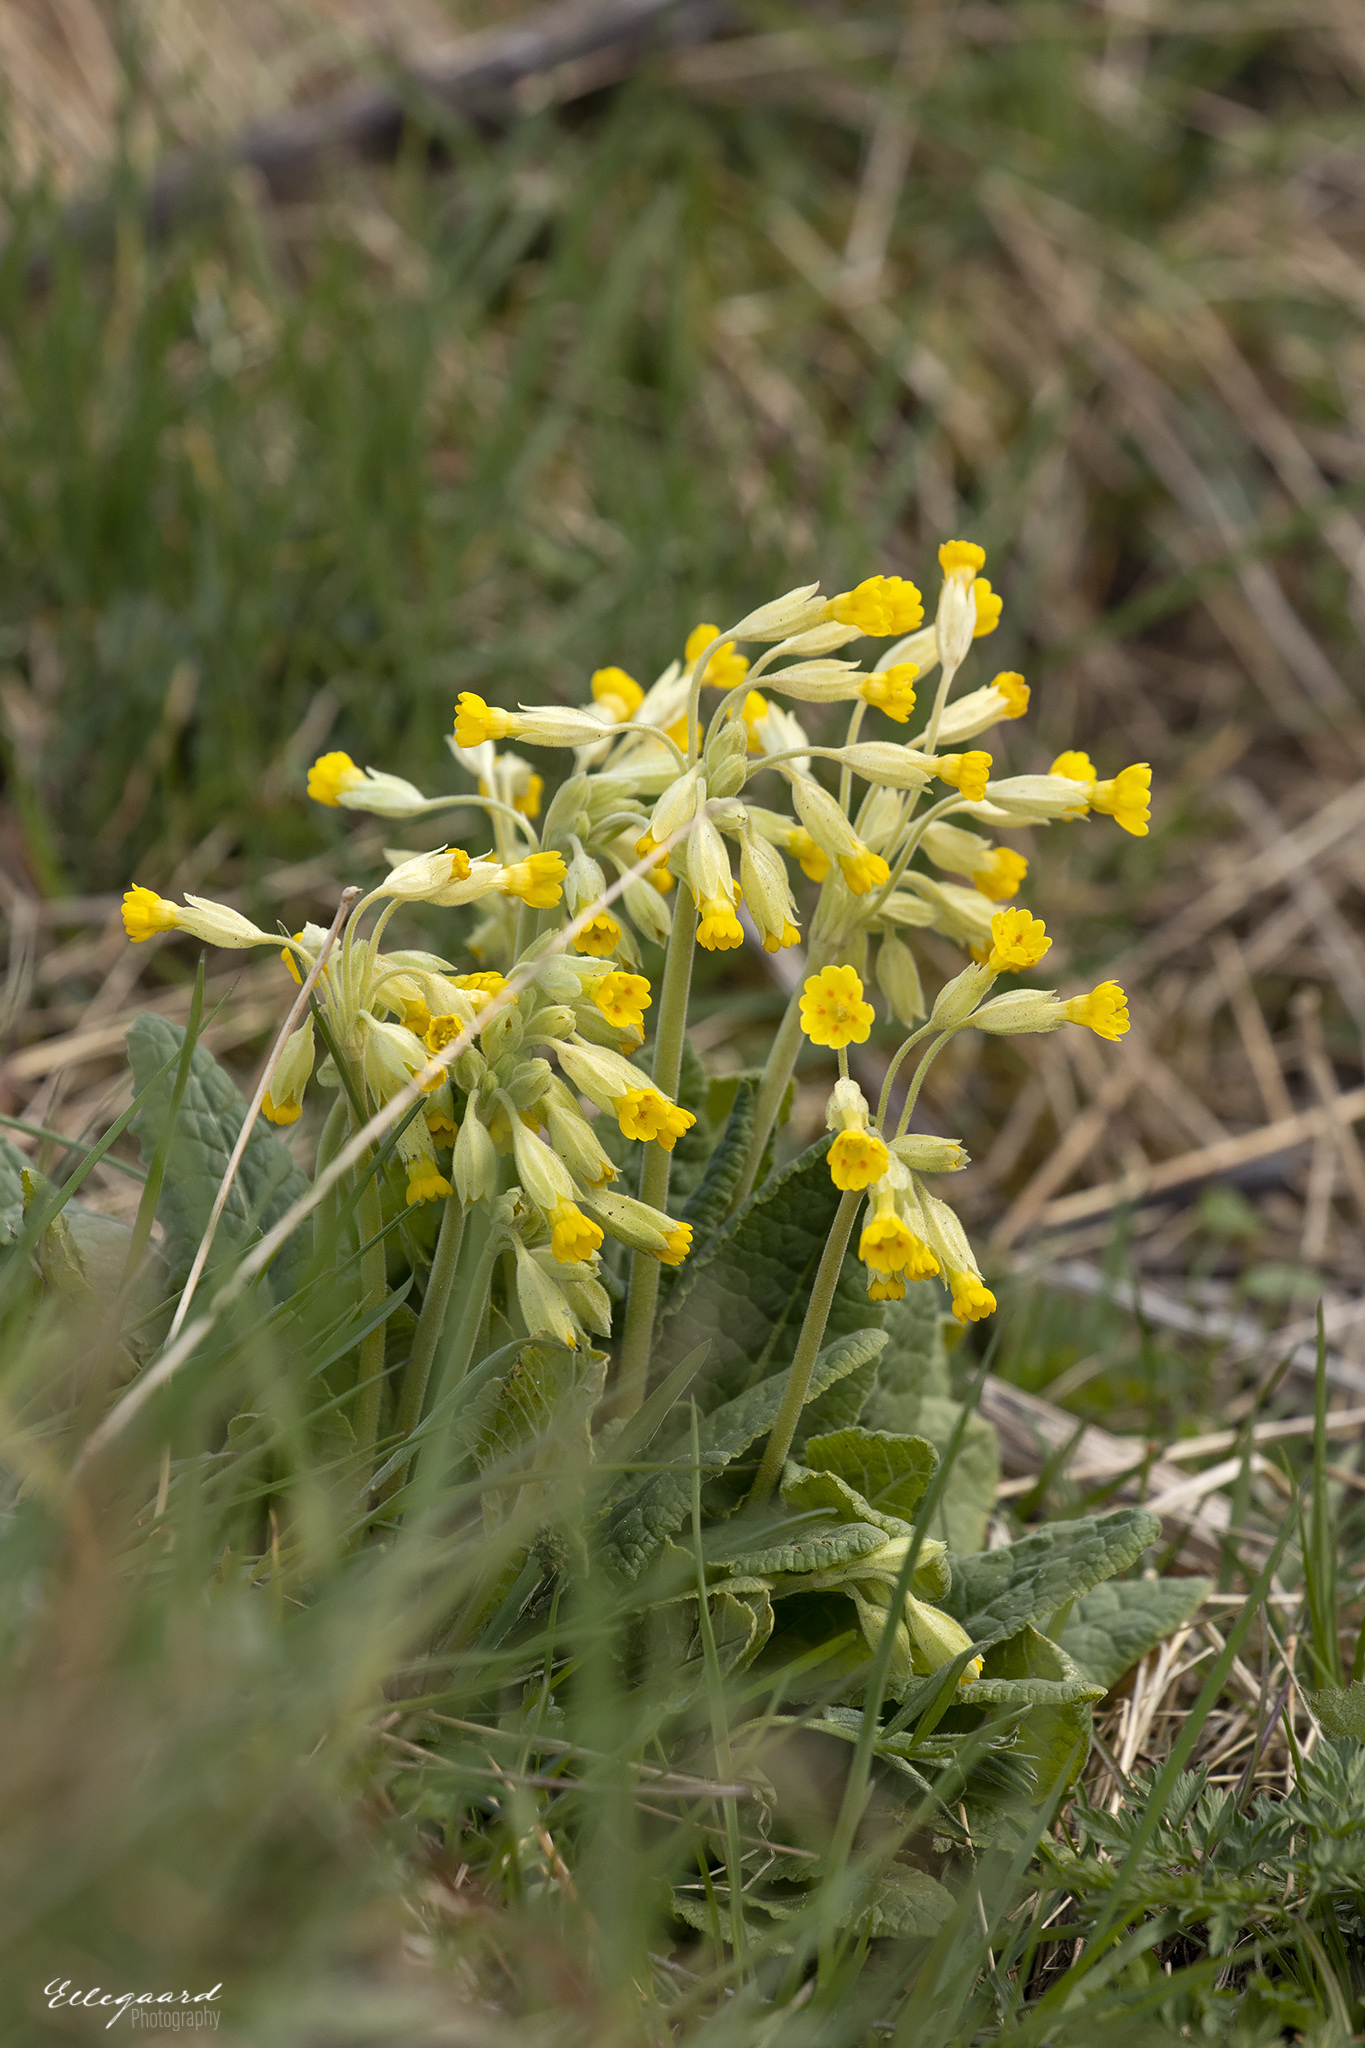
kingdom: Plantae
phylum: Tracheophyta
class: Magnoliopsida
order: Ericales
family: Primulaceae
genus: Primula
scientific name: Primula veris
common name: Cowslip
